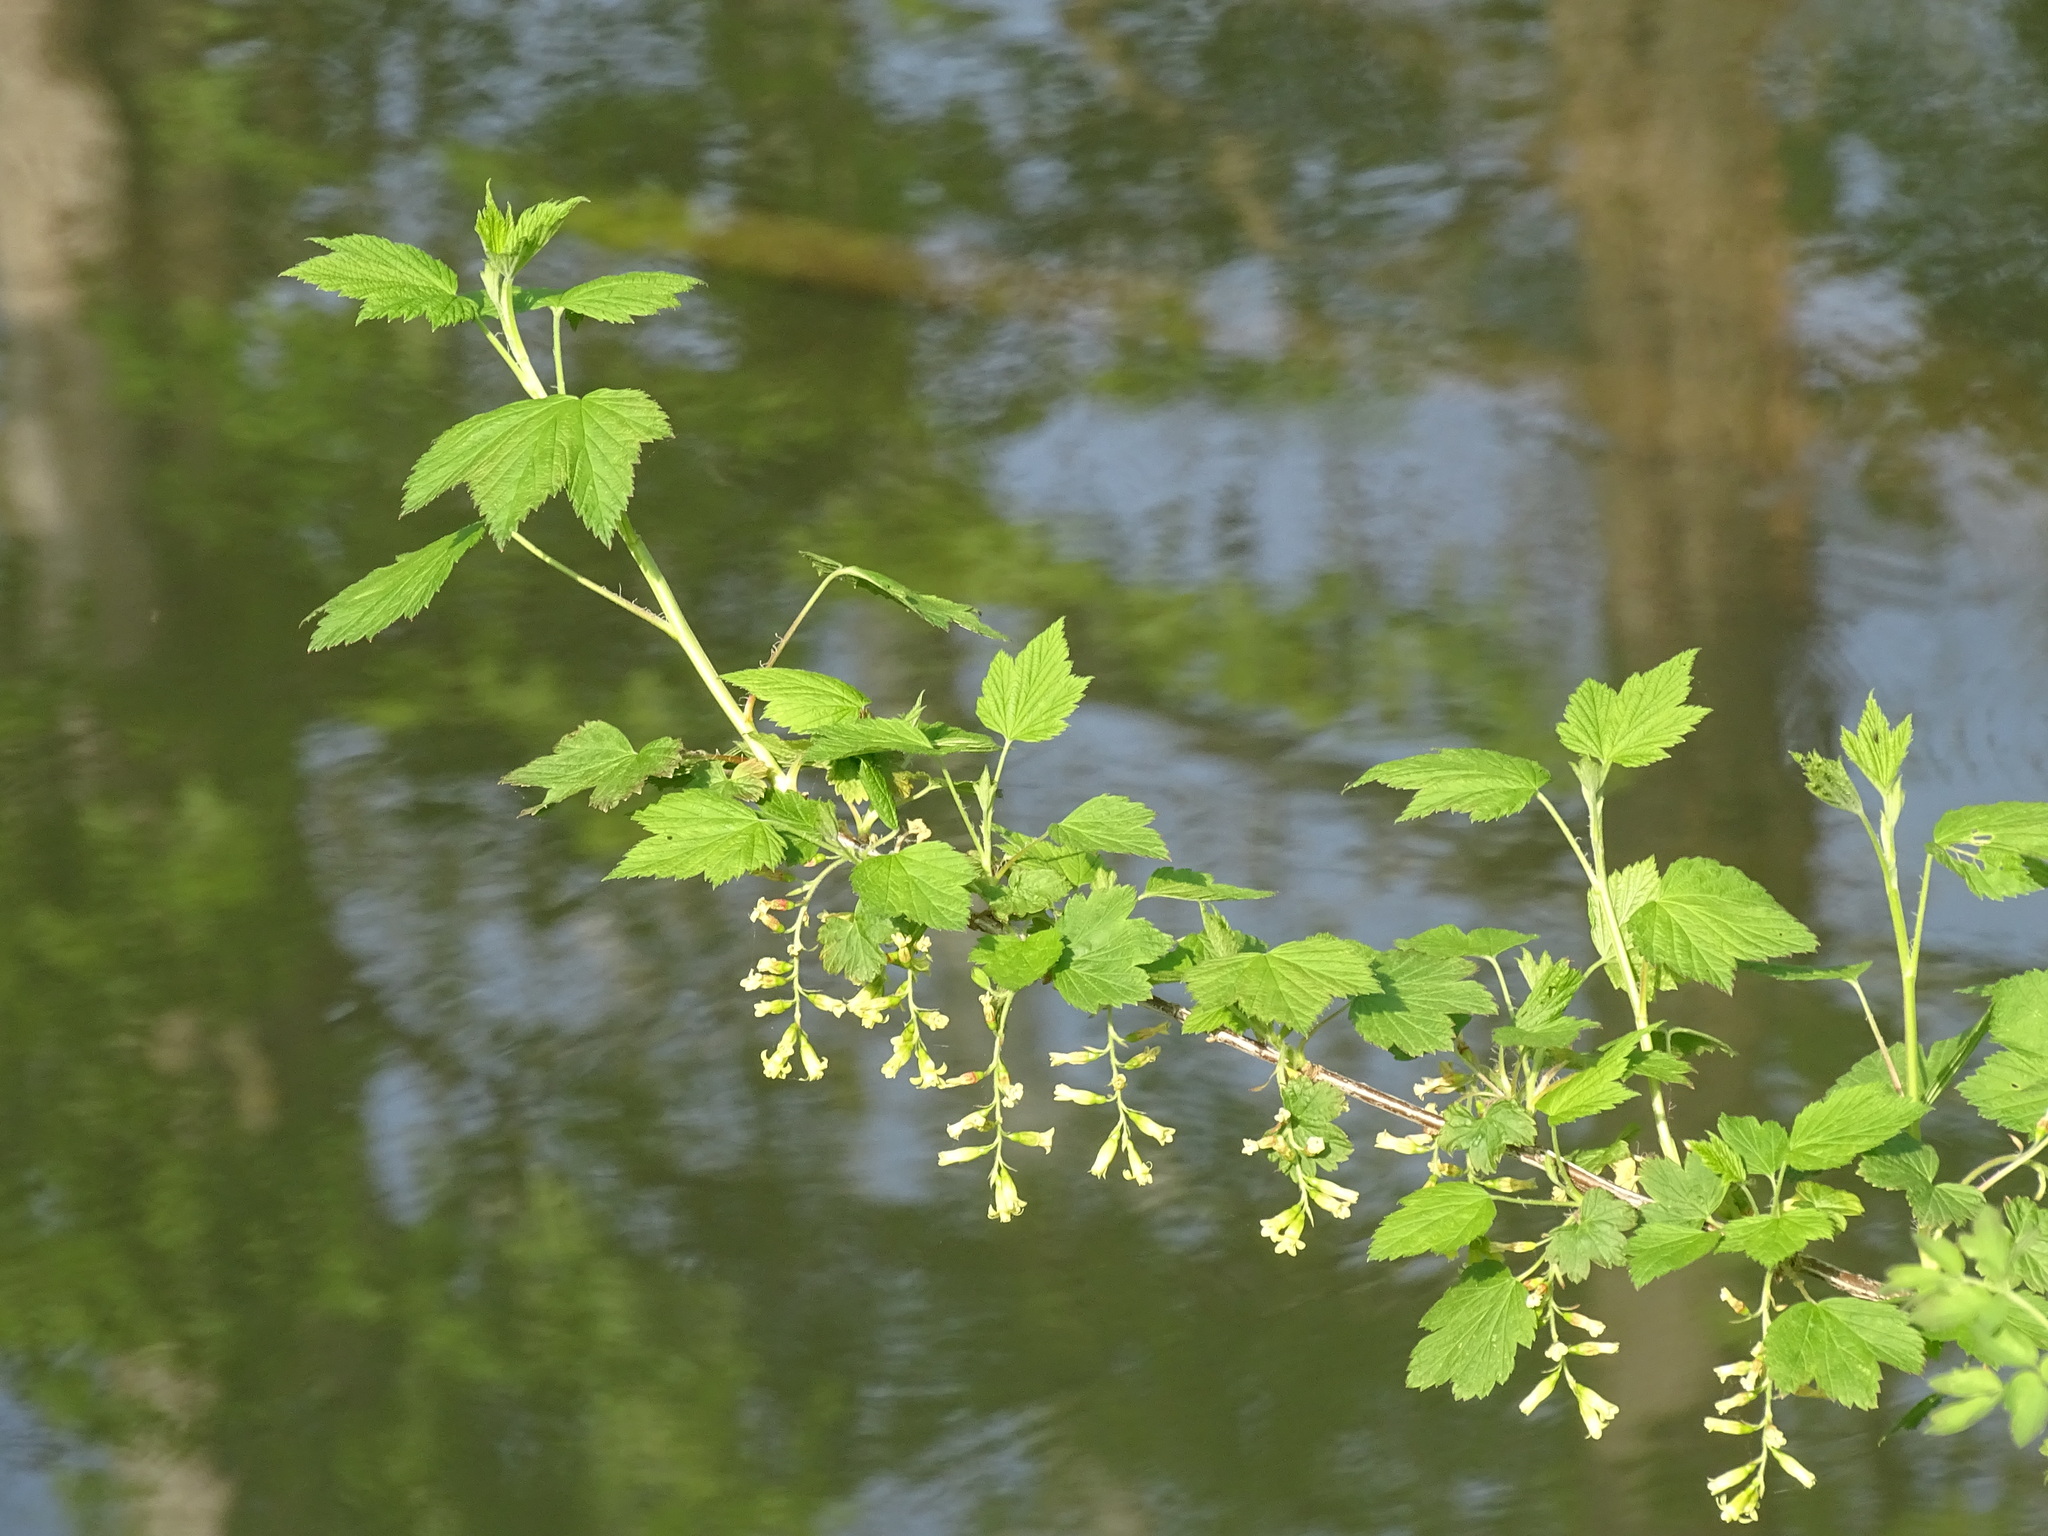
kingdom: Plantae
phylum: Tracheophyta
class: Magnoliopsida
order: Saxifragales
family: Grossulariaceae
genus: Ribes
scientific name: Ribes americanum
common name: American black currant
